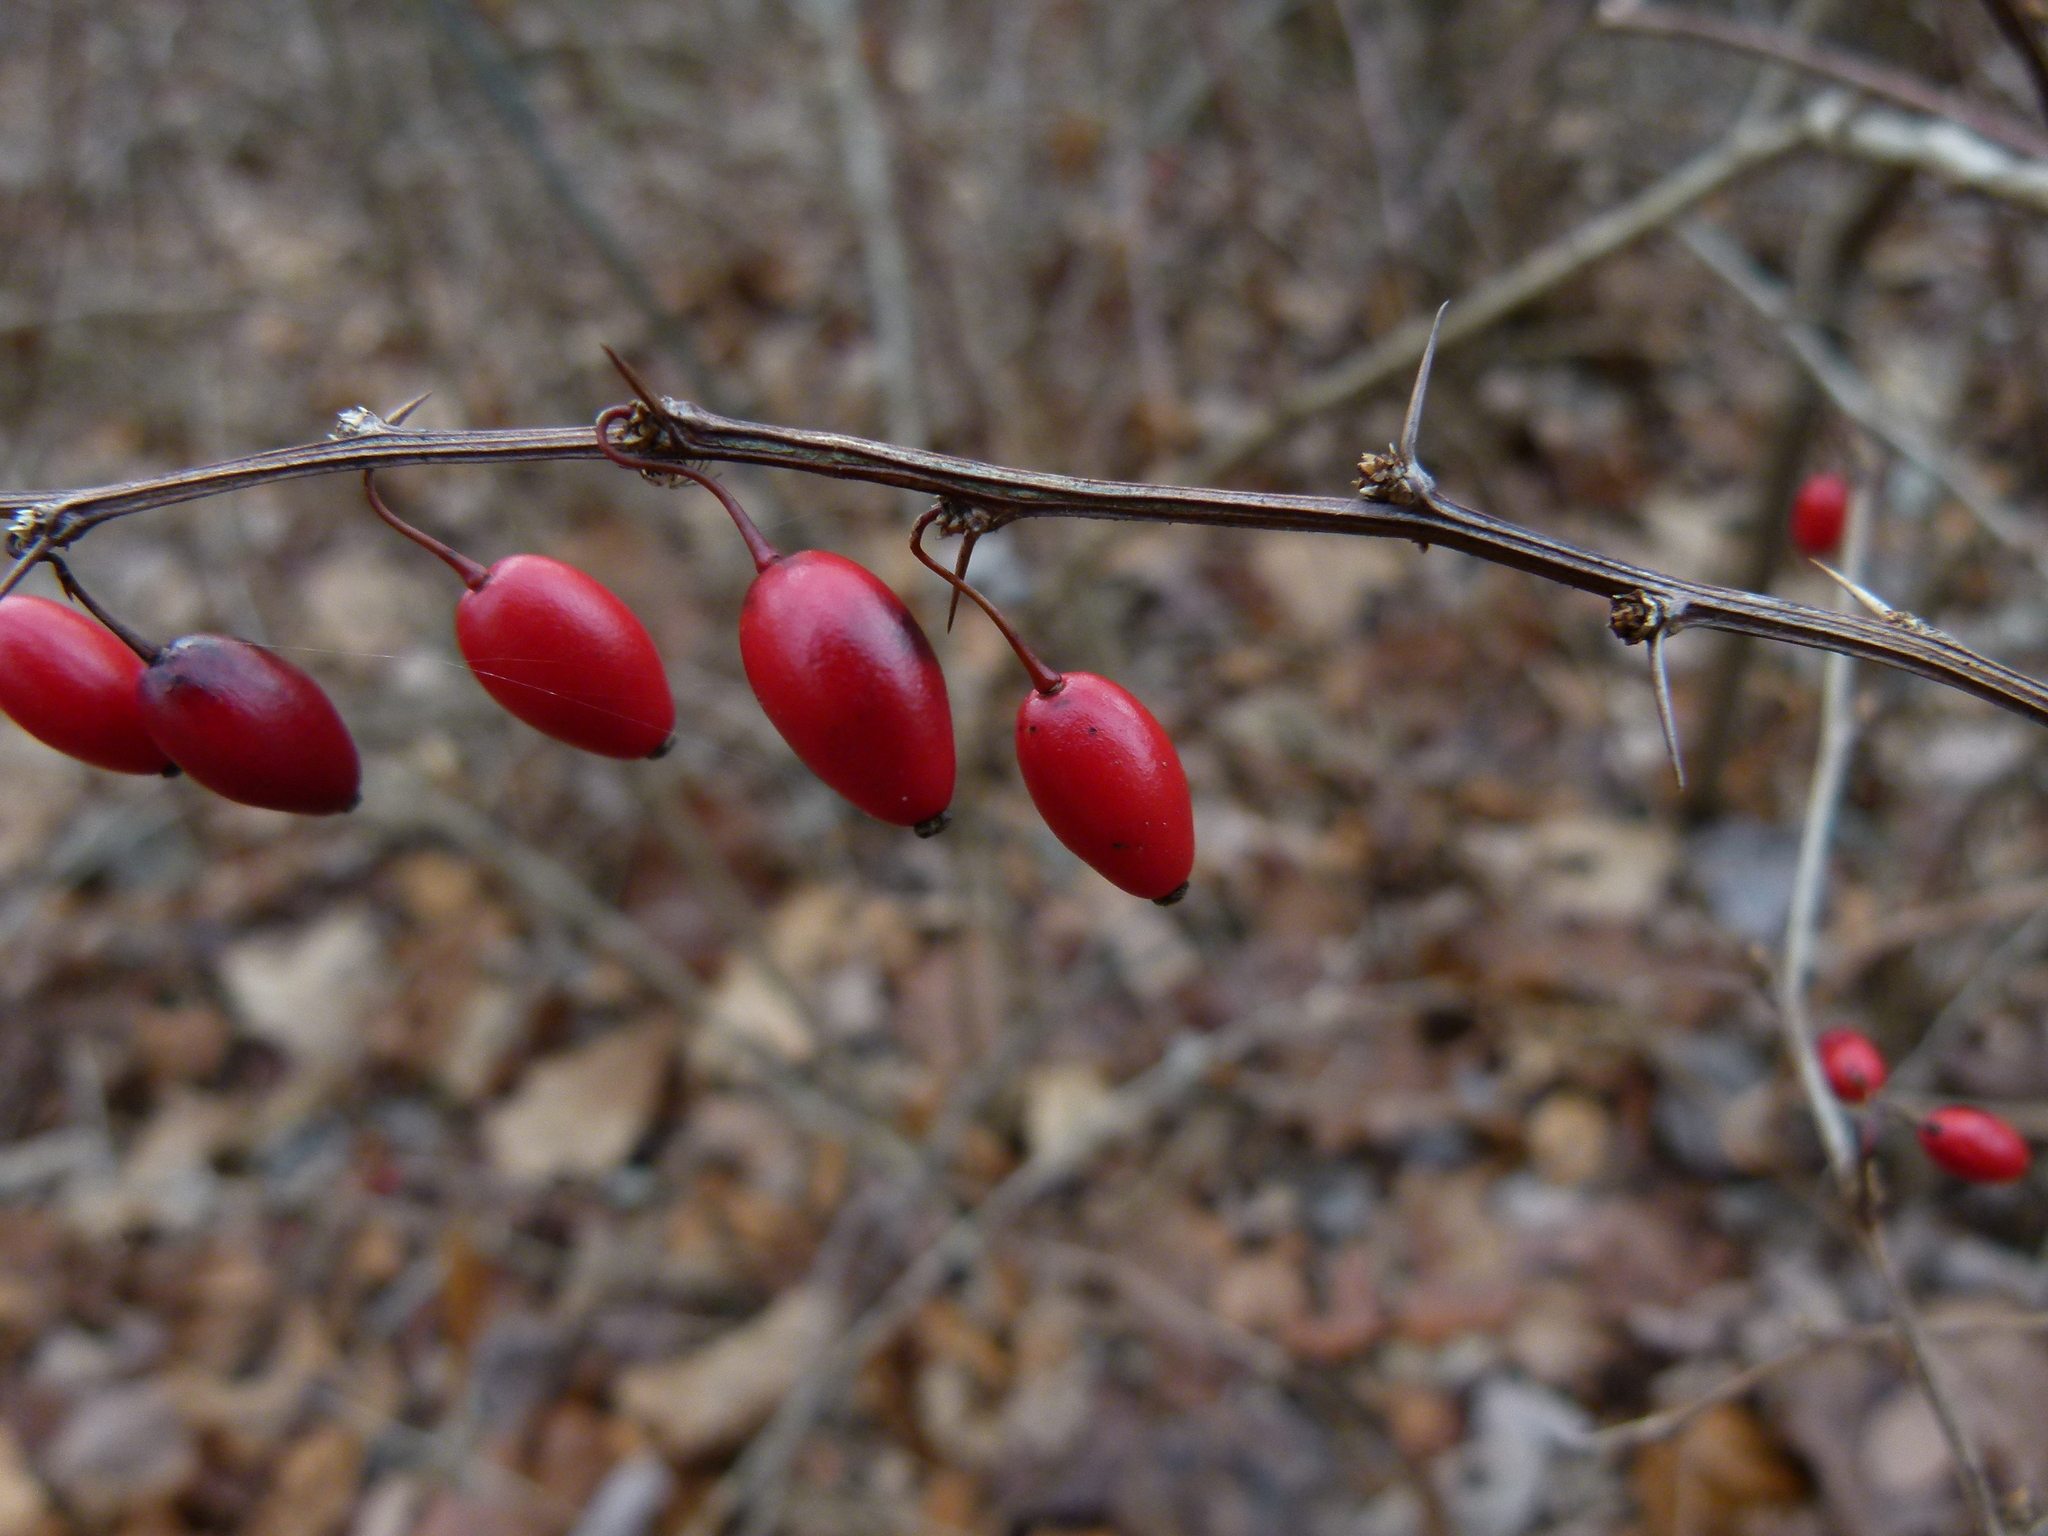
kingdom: Plantae
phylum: Tracheophyta
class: Magnoliopsida
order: Ranunculales
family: Berberidaceae
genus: Berberis
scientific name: Berberis thunbergii
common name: Japanese barberry
